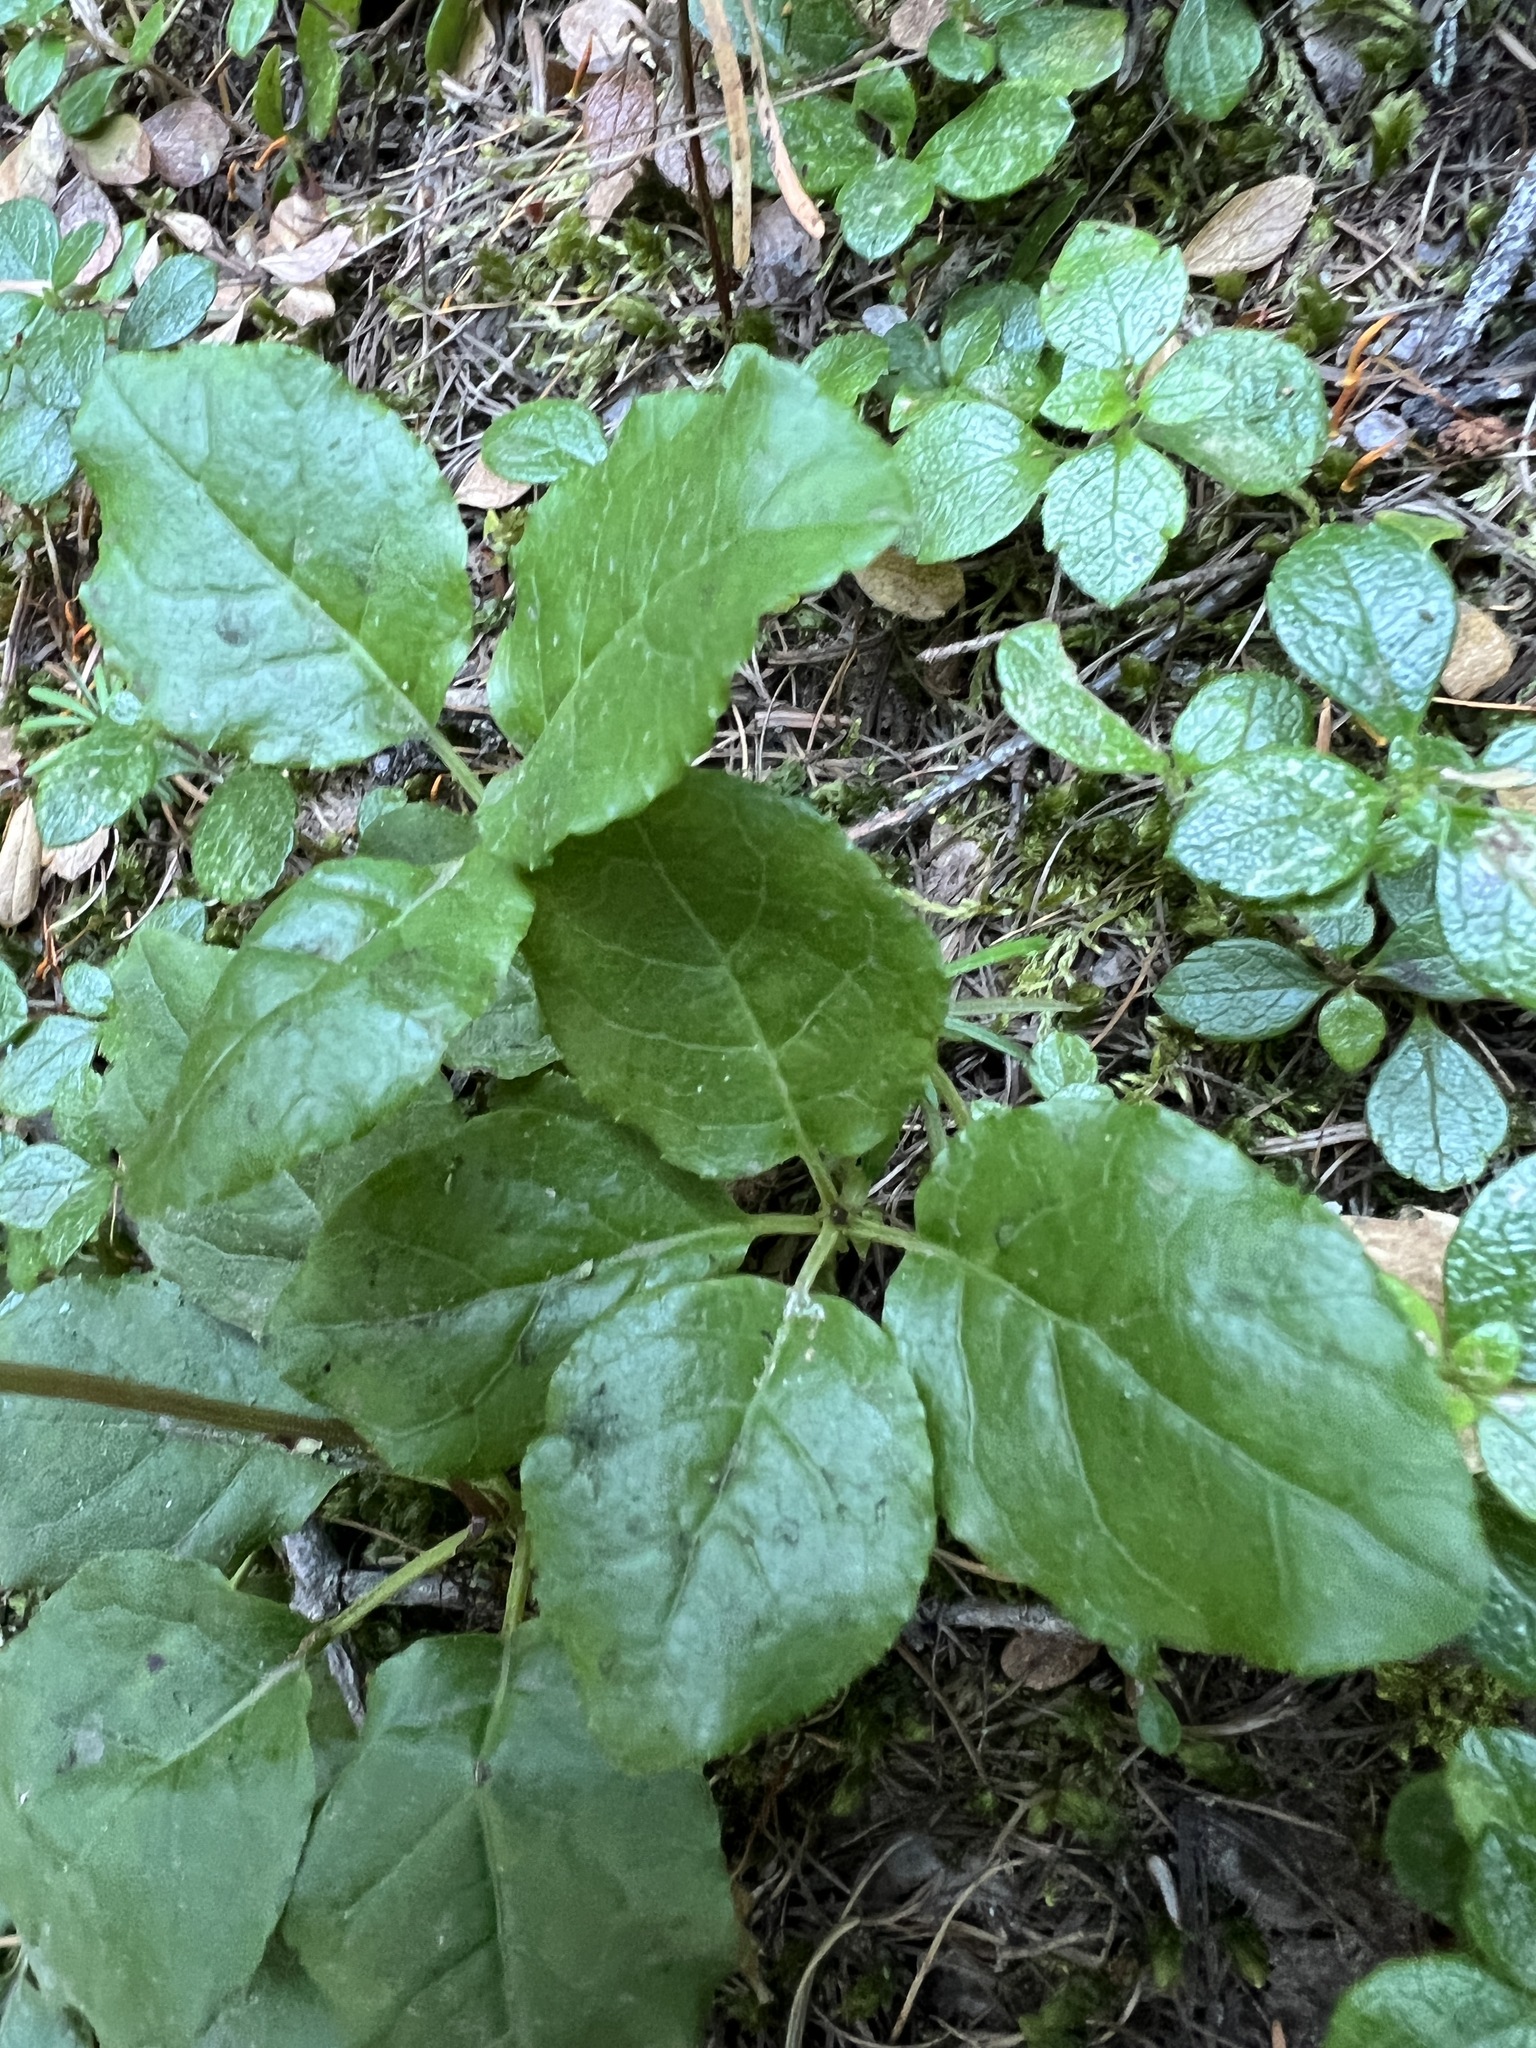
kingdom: Plantae
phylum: Tracheophyta
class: Magnoliopsida
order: Ericales
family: Ericaceae
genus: Orthilia
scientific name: Orthilia secunda
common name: One-sided orthilia
